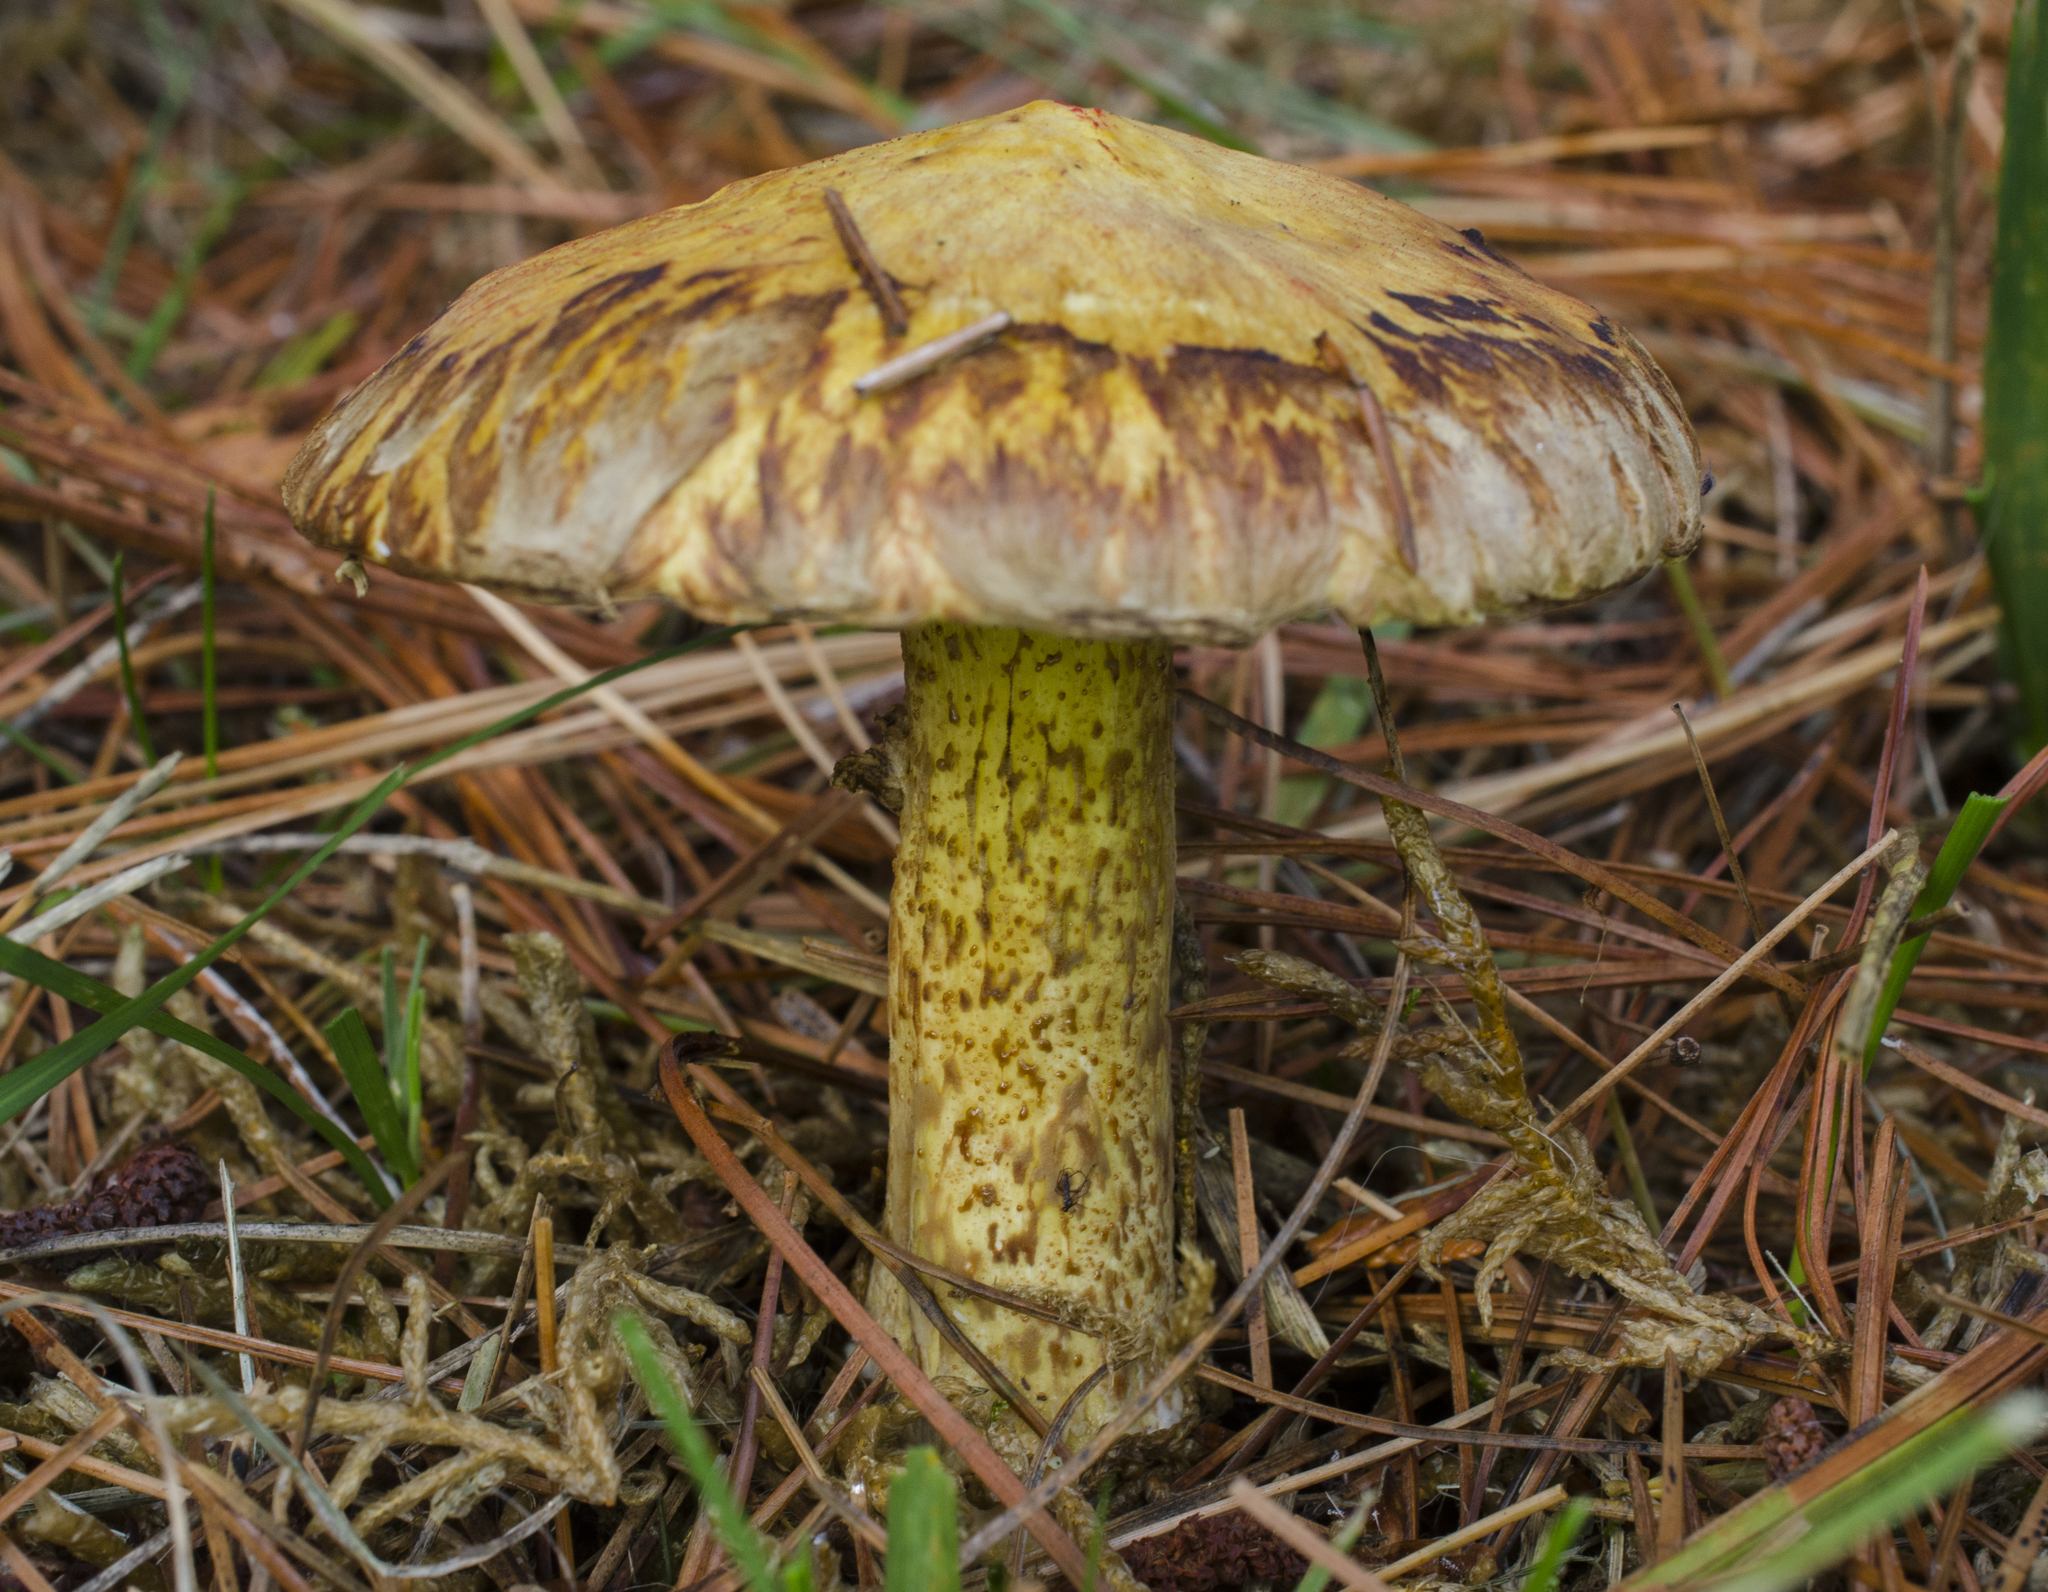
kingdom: Fungi
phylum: Basidiomycota
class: Agaricomycetes
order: Boletales
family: Suillaceae
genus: Suillus
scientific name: Suillus americanus
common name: Chicken fat mushroom
